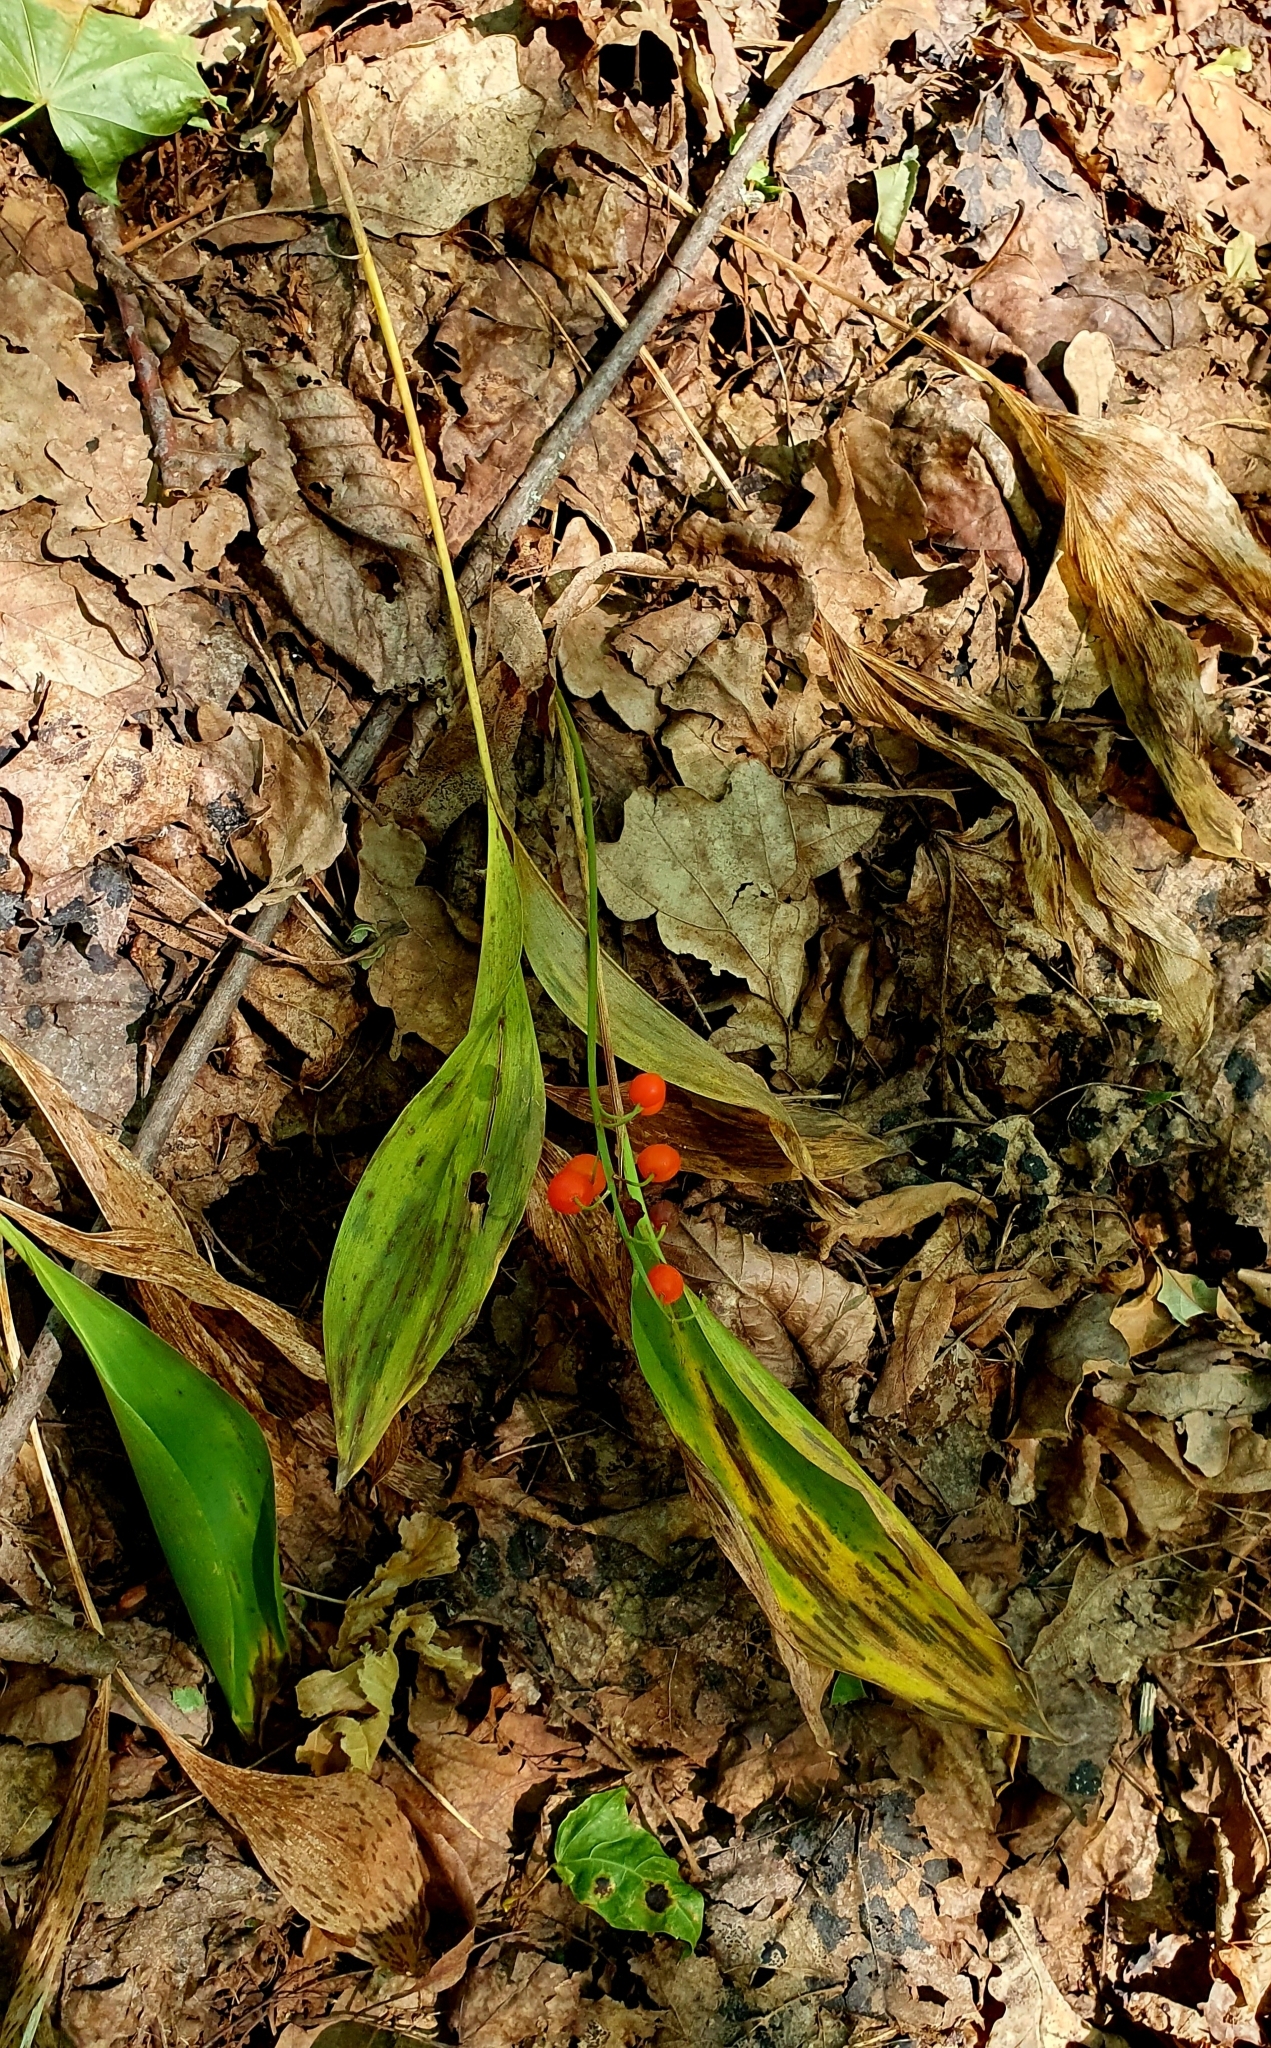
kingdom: Plantae
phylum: Tracheophyta
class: Liliopsida
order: Asparagales
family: Asparagaceae
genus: Convallaria
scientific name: Convallaria majalis
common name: Lily-of-the-valley
